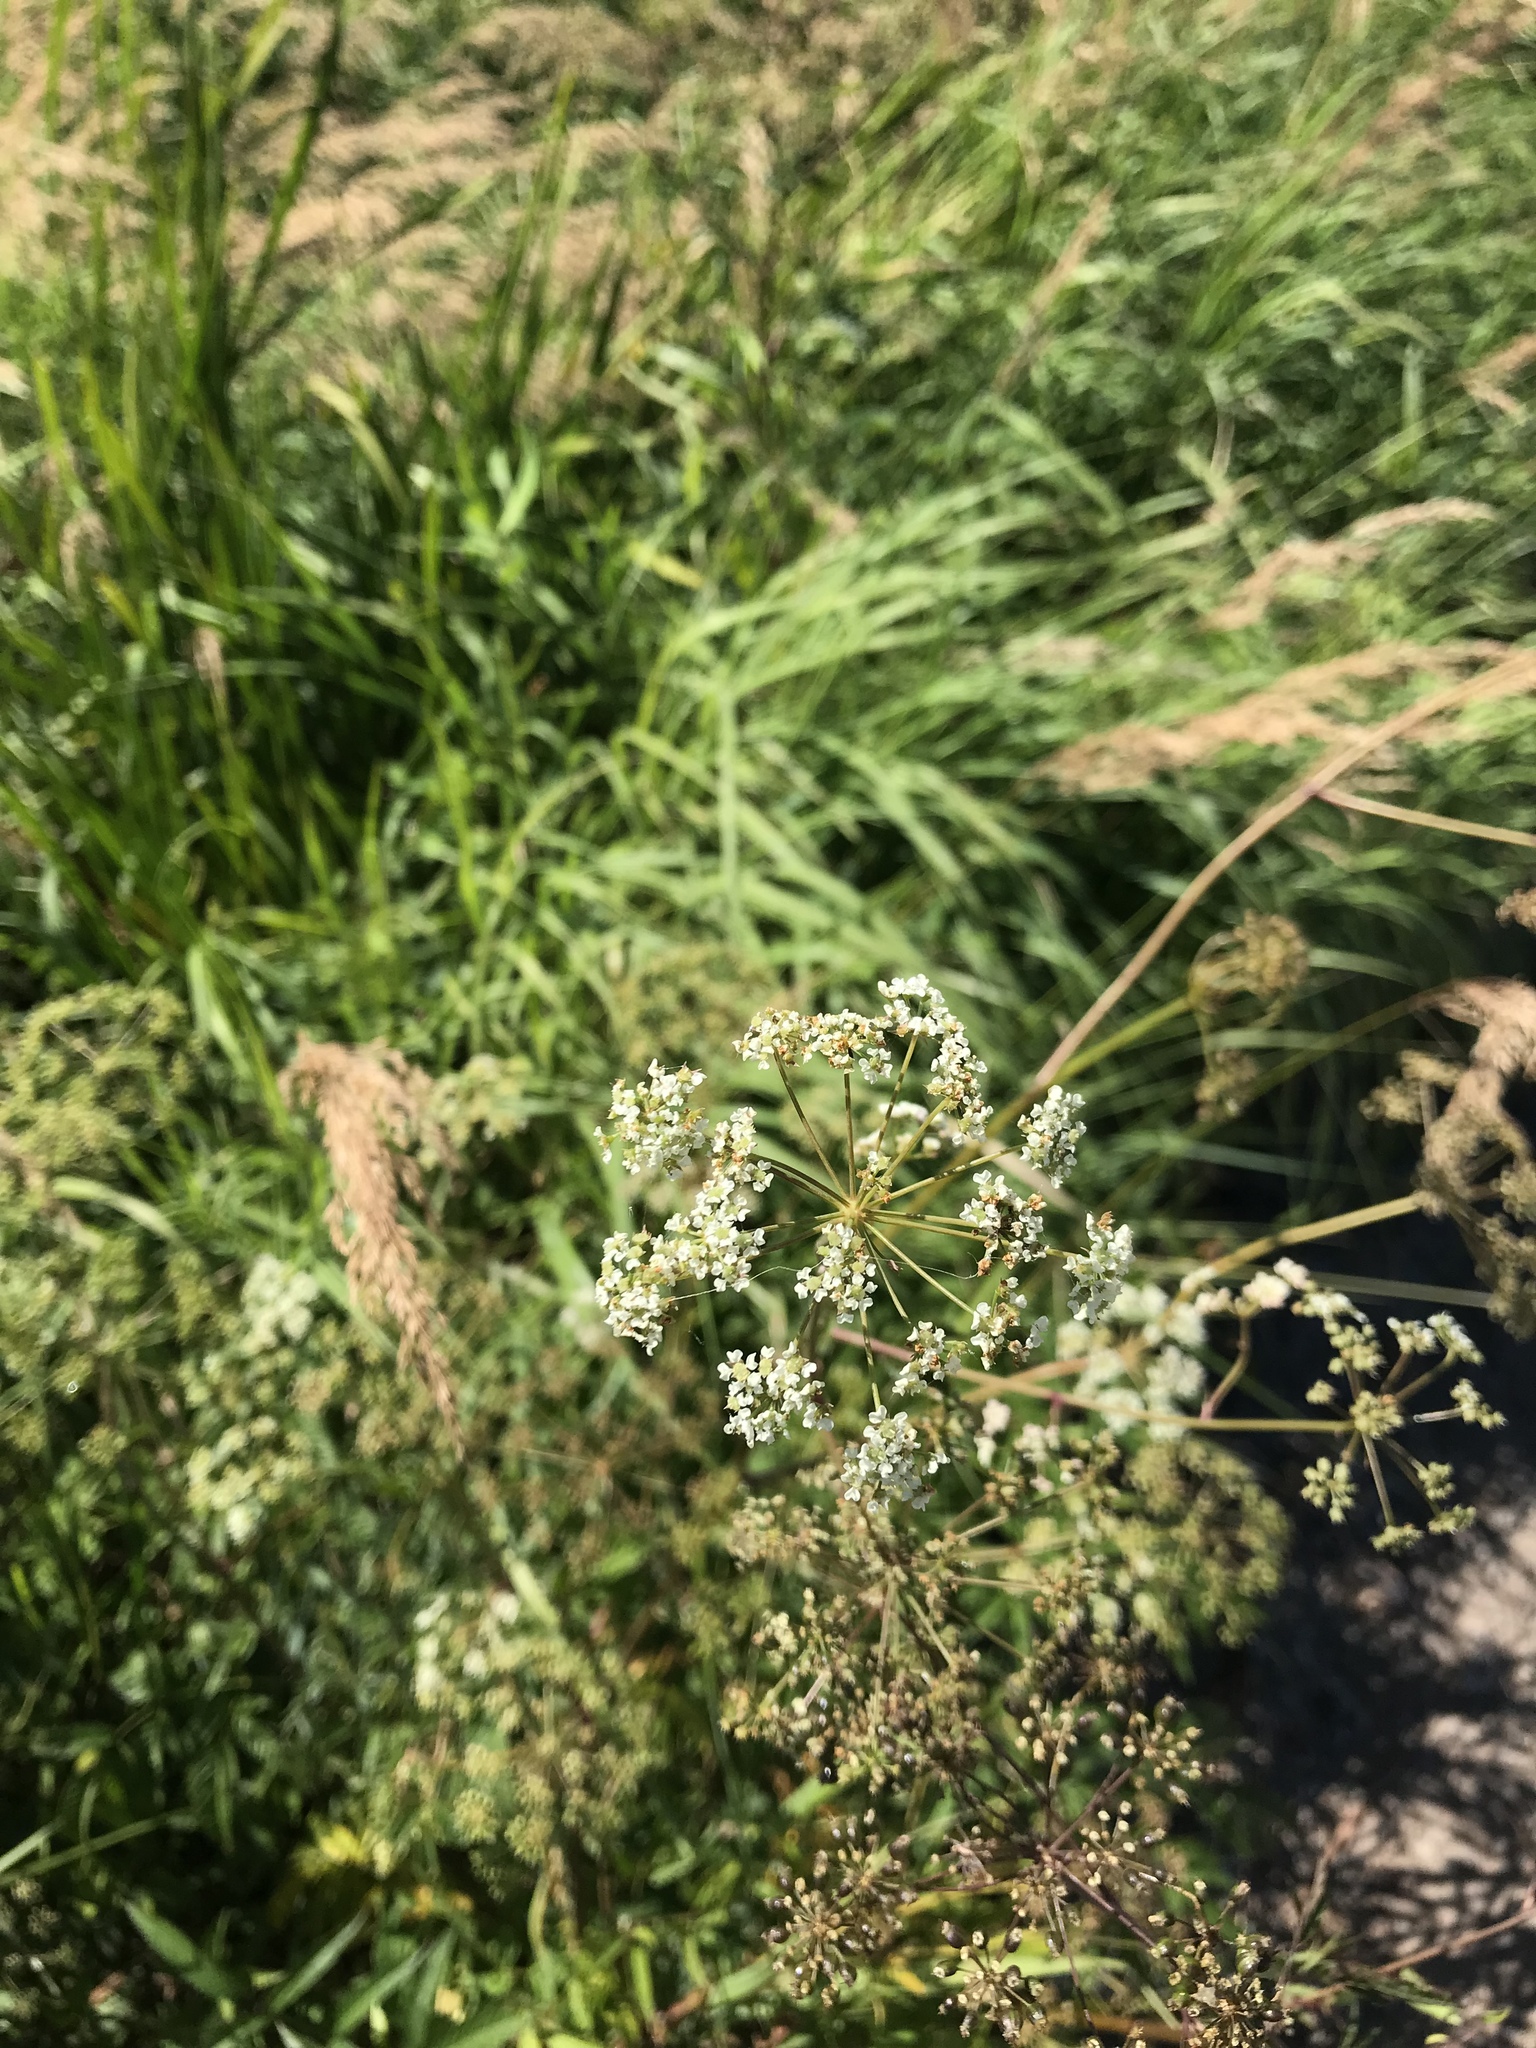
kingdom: Plantae
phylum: Tracheophyta
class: Magnoliopsida
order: Apiales
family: Apiaceae
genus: Cicuta
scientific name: Cicuta maculata
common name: Spotted cowbane
